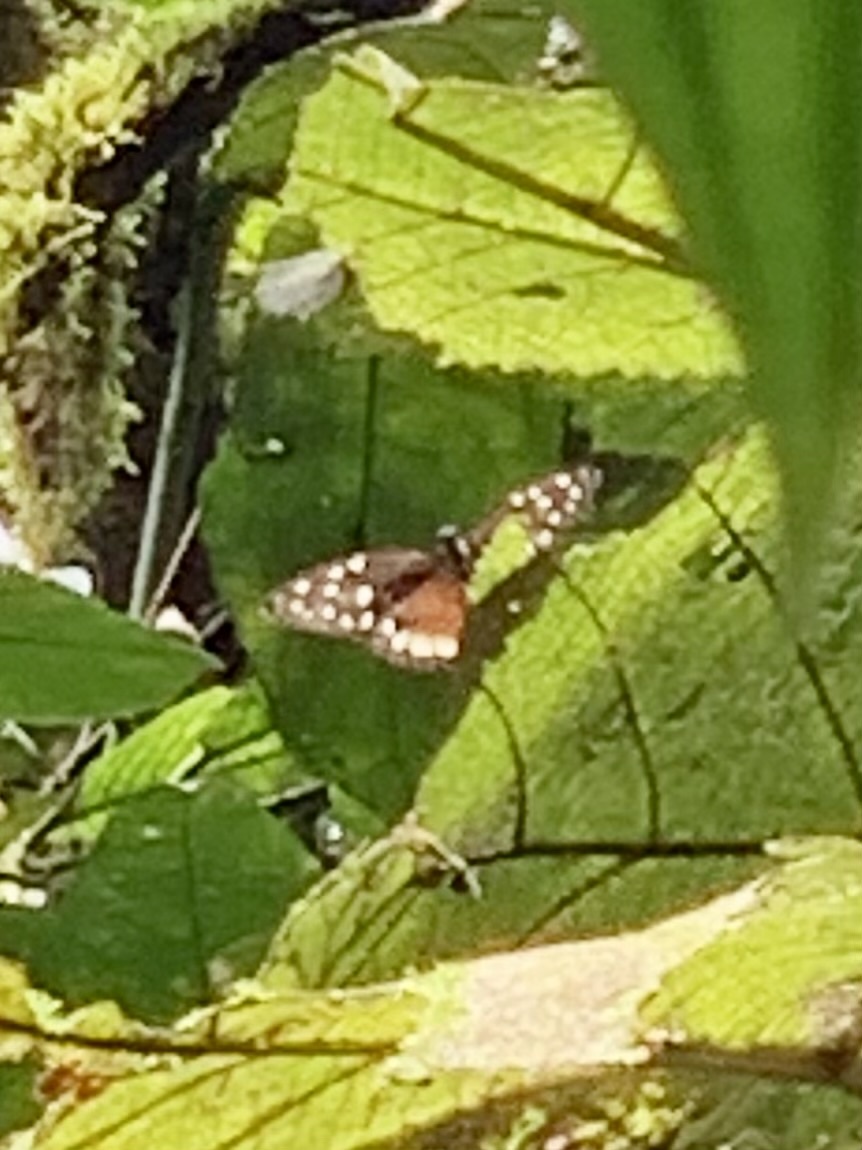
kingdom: Animalia
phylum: Arthropoda
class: Insecta
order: Lepidoptera
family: Nymphalidae
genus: Tithorea
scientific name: Tithorea tarricina
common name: Cream-spotted tigerwing
